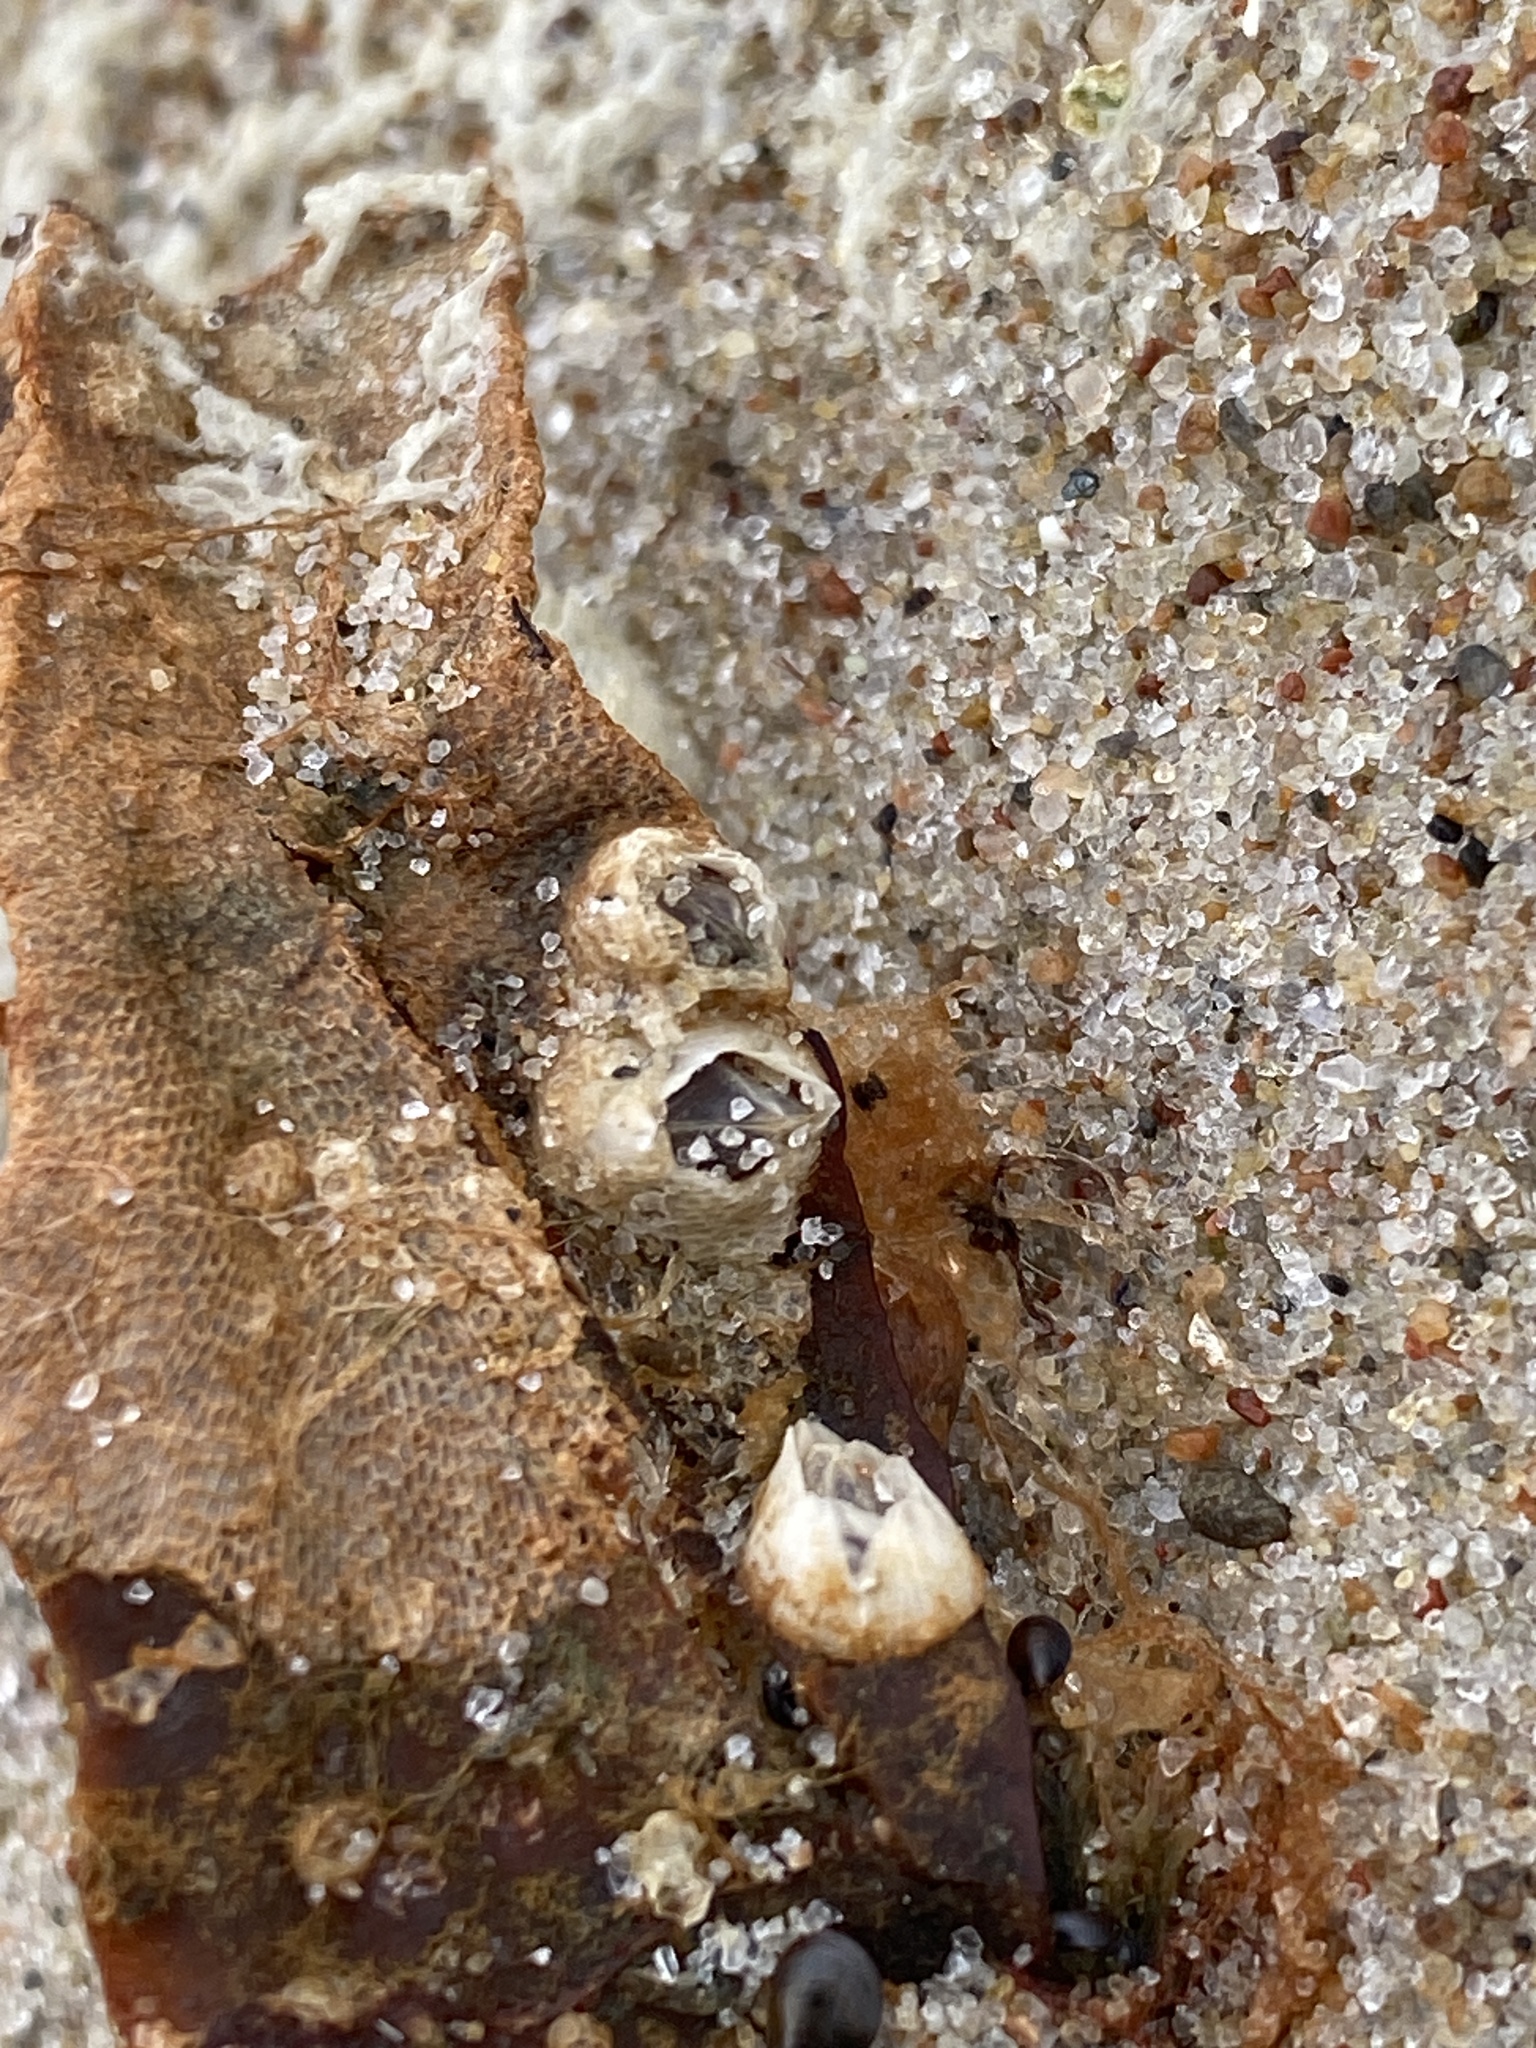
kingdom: Animalia
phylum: Arthropoda
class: Maxillopoda
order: Sessilia
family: Balanidae
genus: Amphibalanus
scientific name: Amphibalanus improvisus
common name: Bay barnacle
